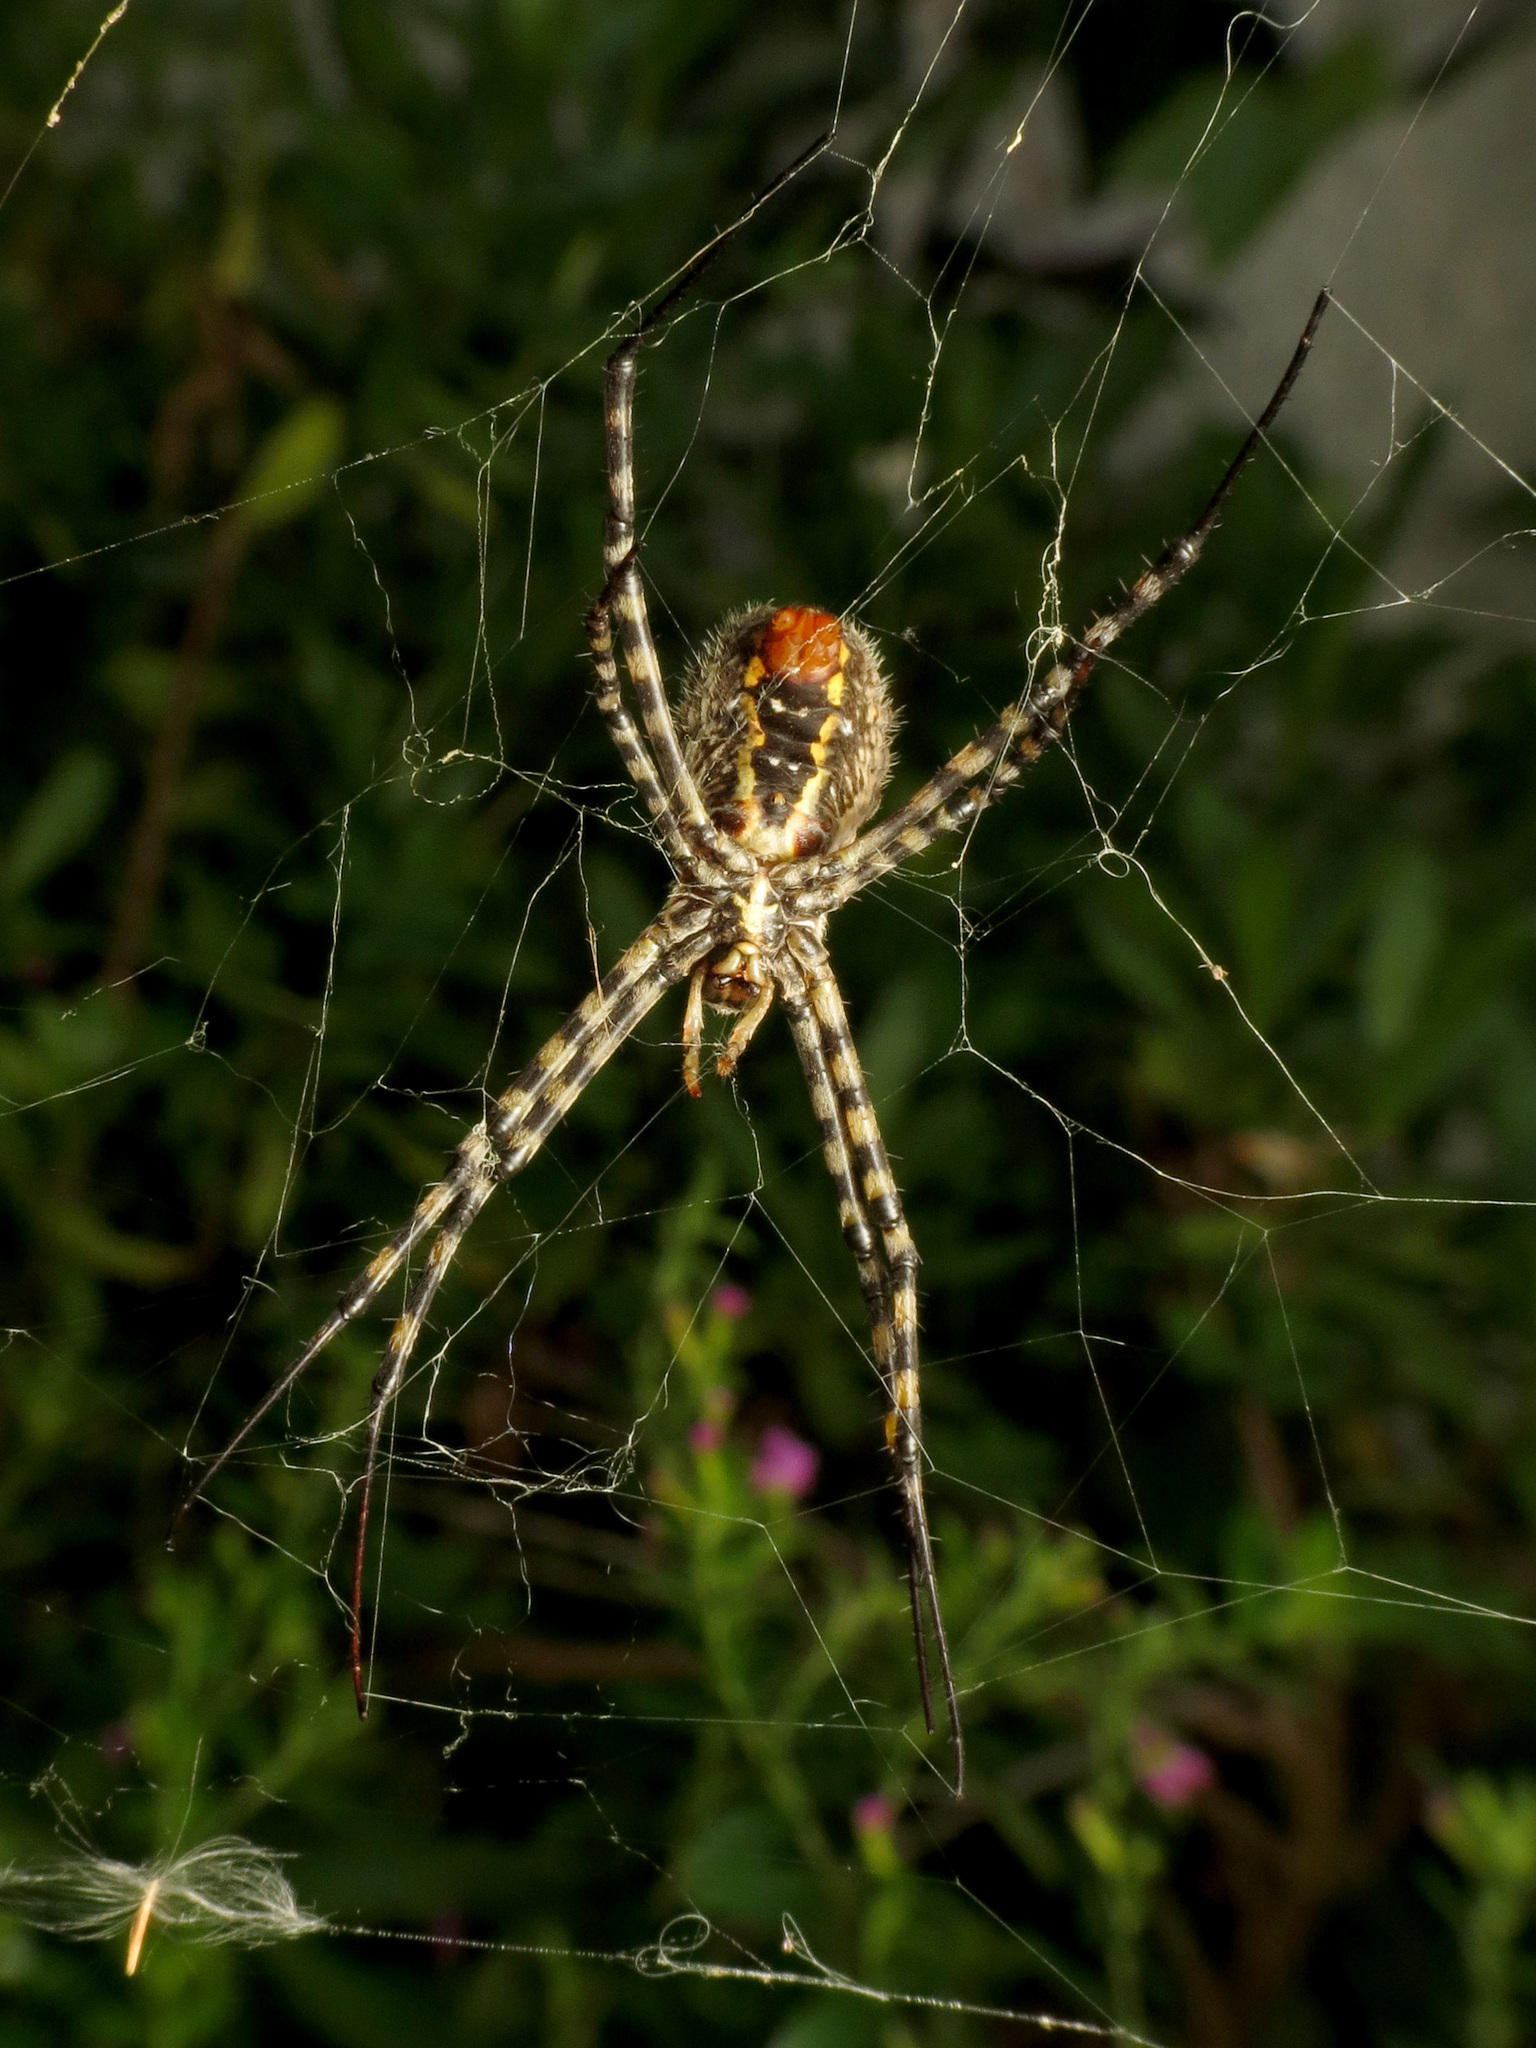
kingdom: Animalia
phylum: Arthropoda
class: Arachnida
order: Araneae
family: Araneidae
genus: Argiope
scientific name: Argiope trifasciata
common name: Banded garden spider
